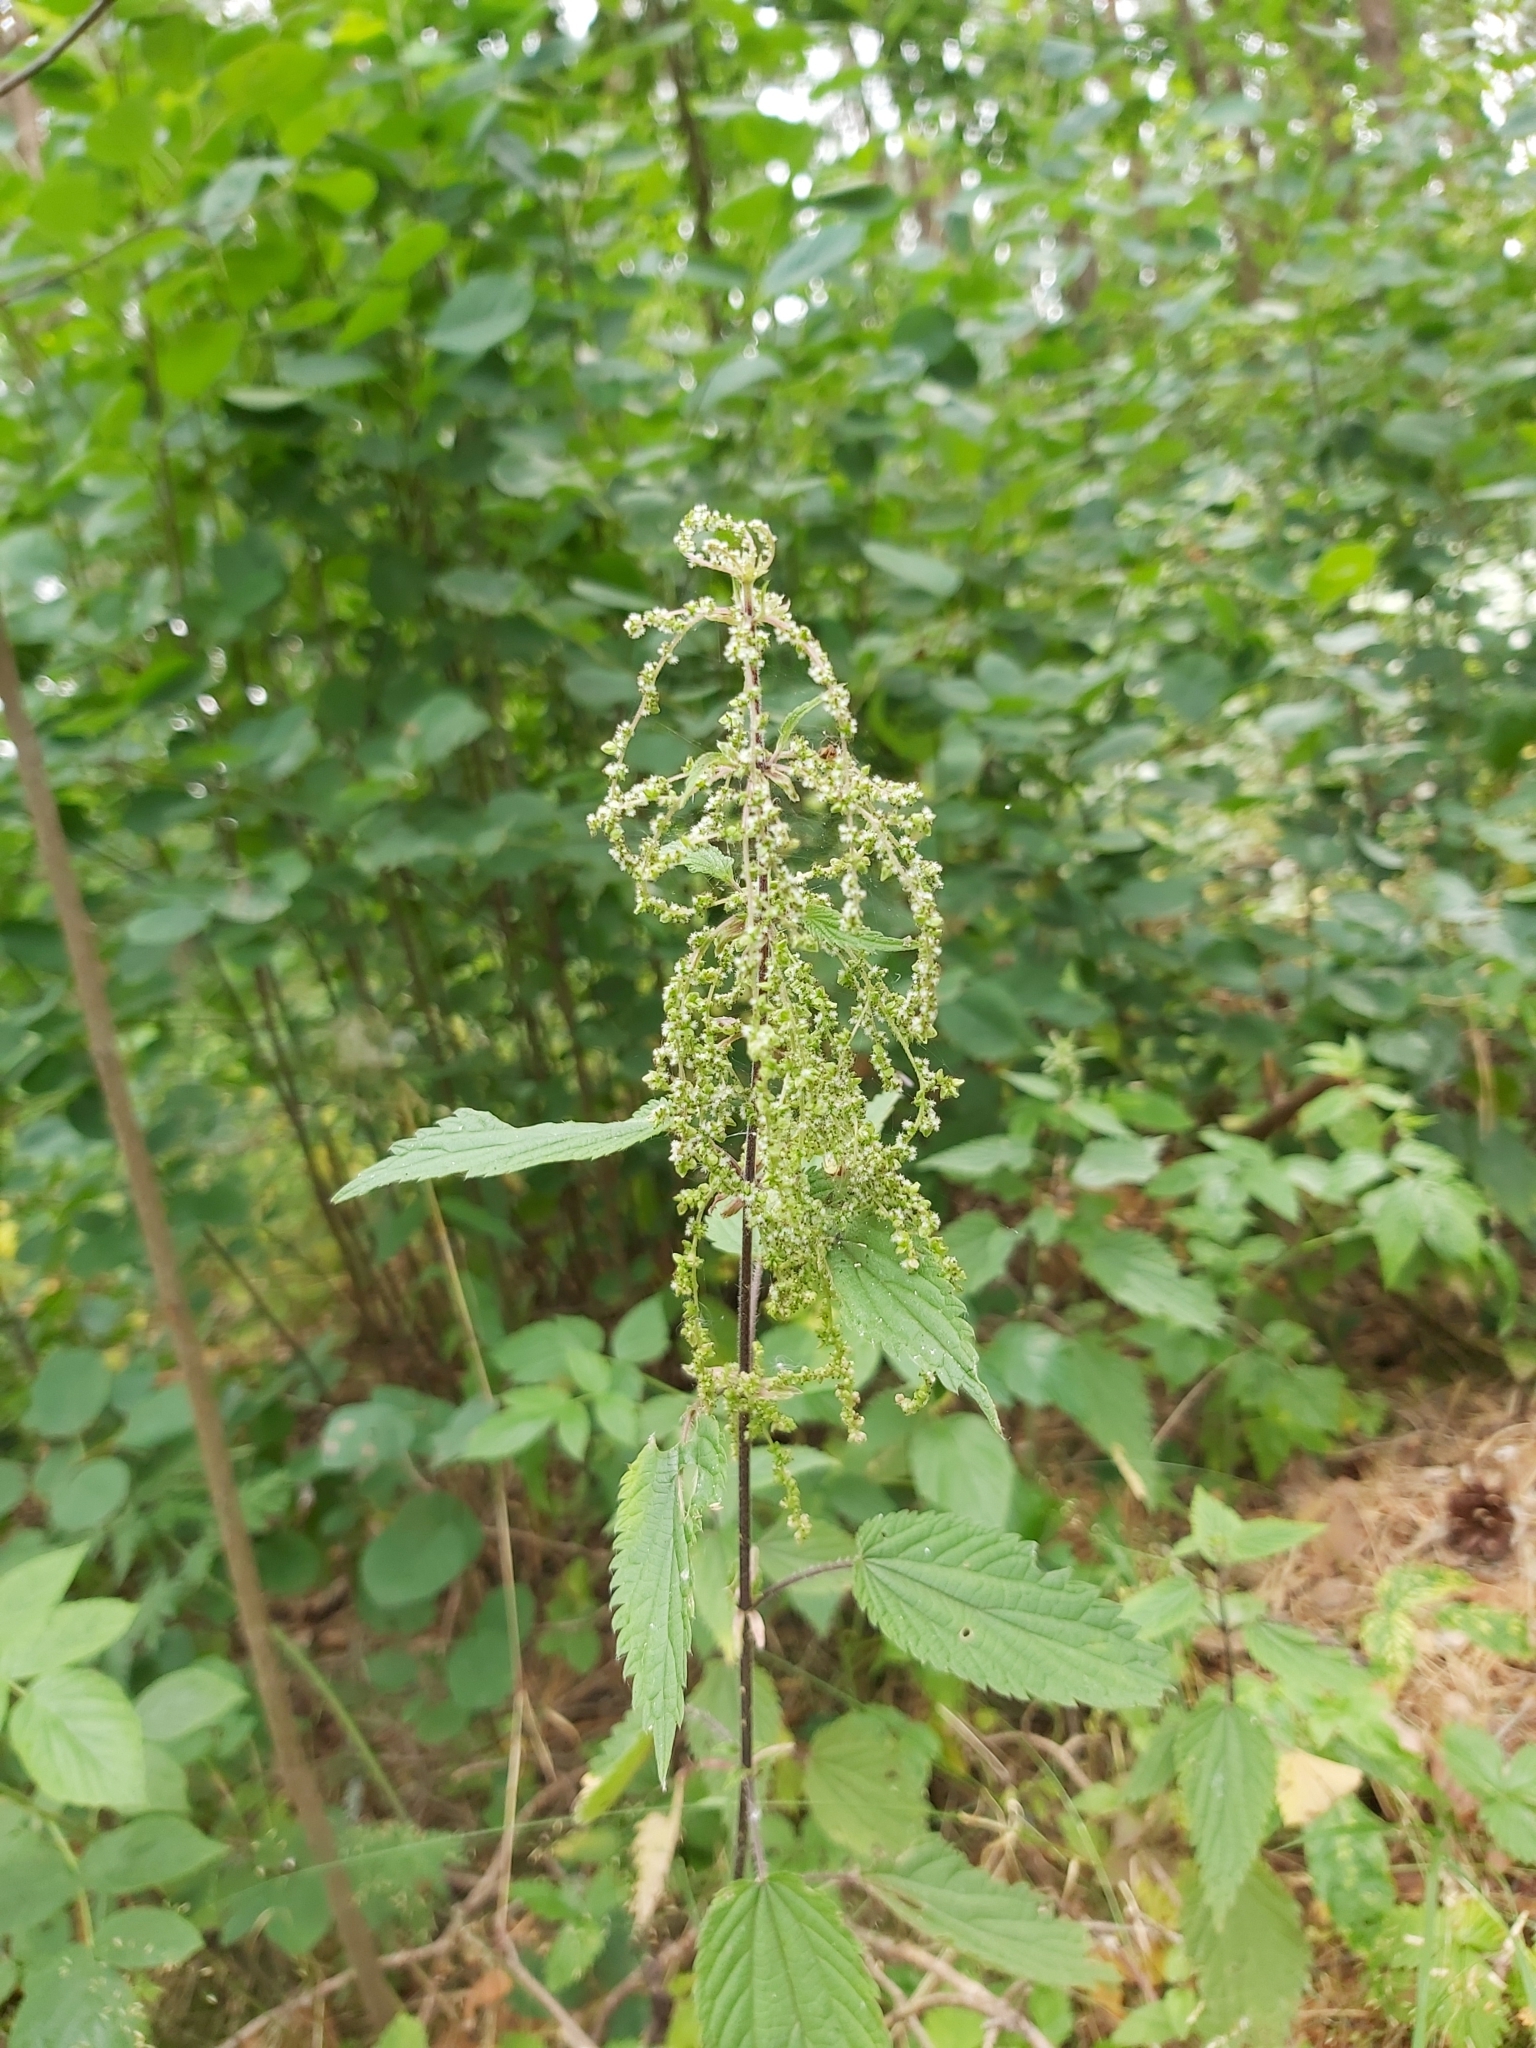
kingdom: Plantae
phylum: Tracheophyta
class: Magnoliopsida
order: Rosales
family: Urticaceae
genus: Urtica
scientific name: Urtica dioica
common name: Common nettle
